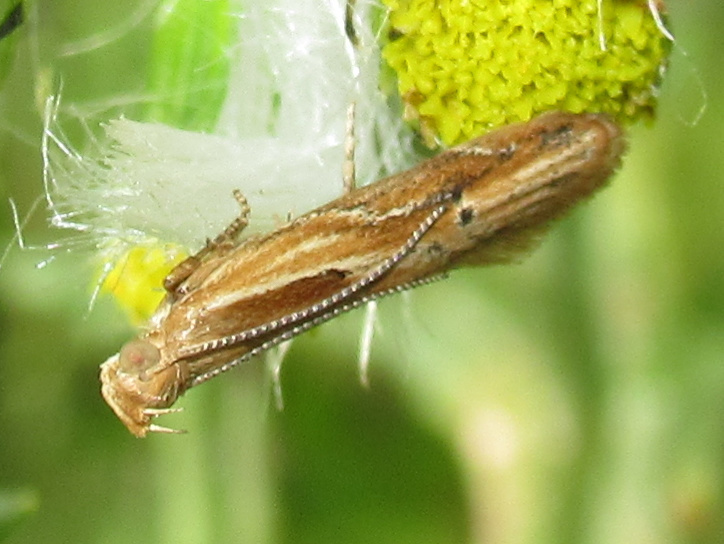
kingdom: Animalia
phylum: Arthropoda
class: Insecta
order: Lepidoptera
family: Depressariidae
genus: Eutorna
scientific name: Eutorna symmorpha
